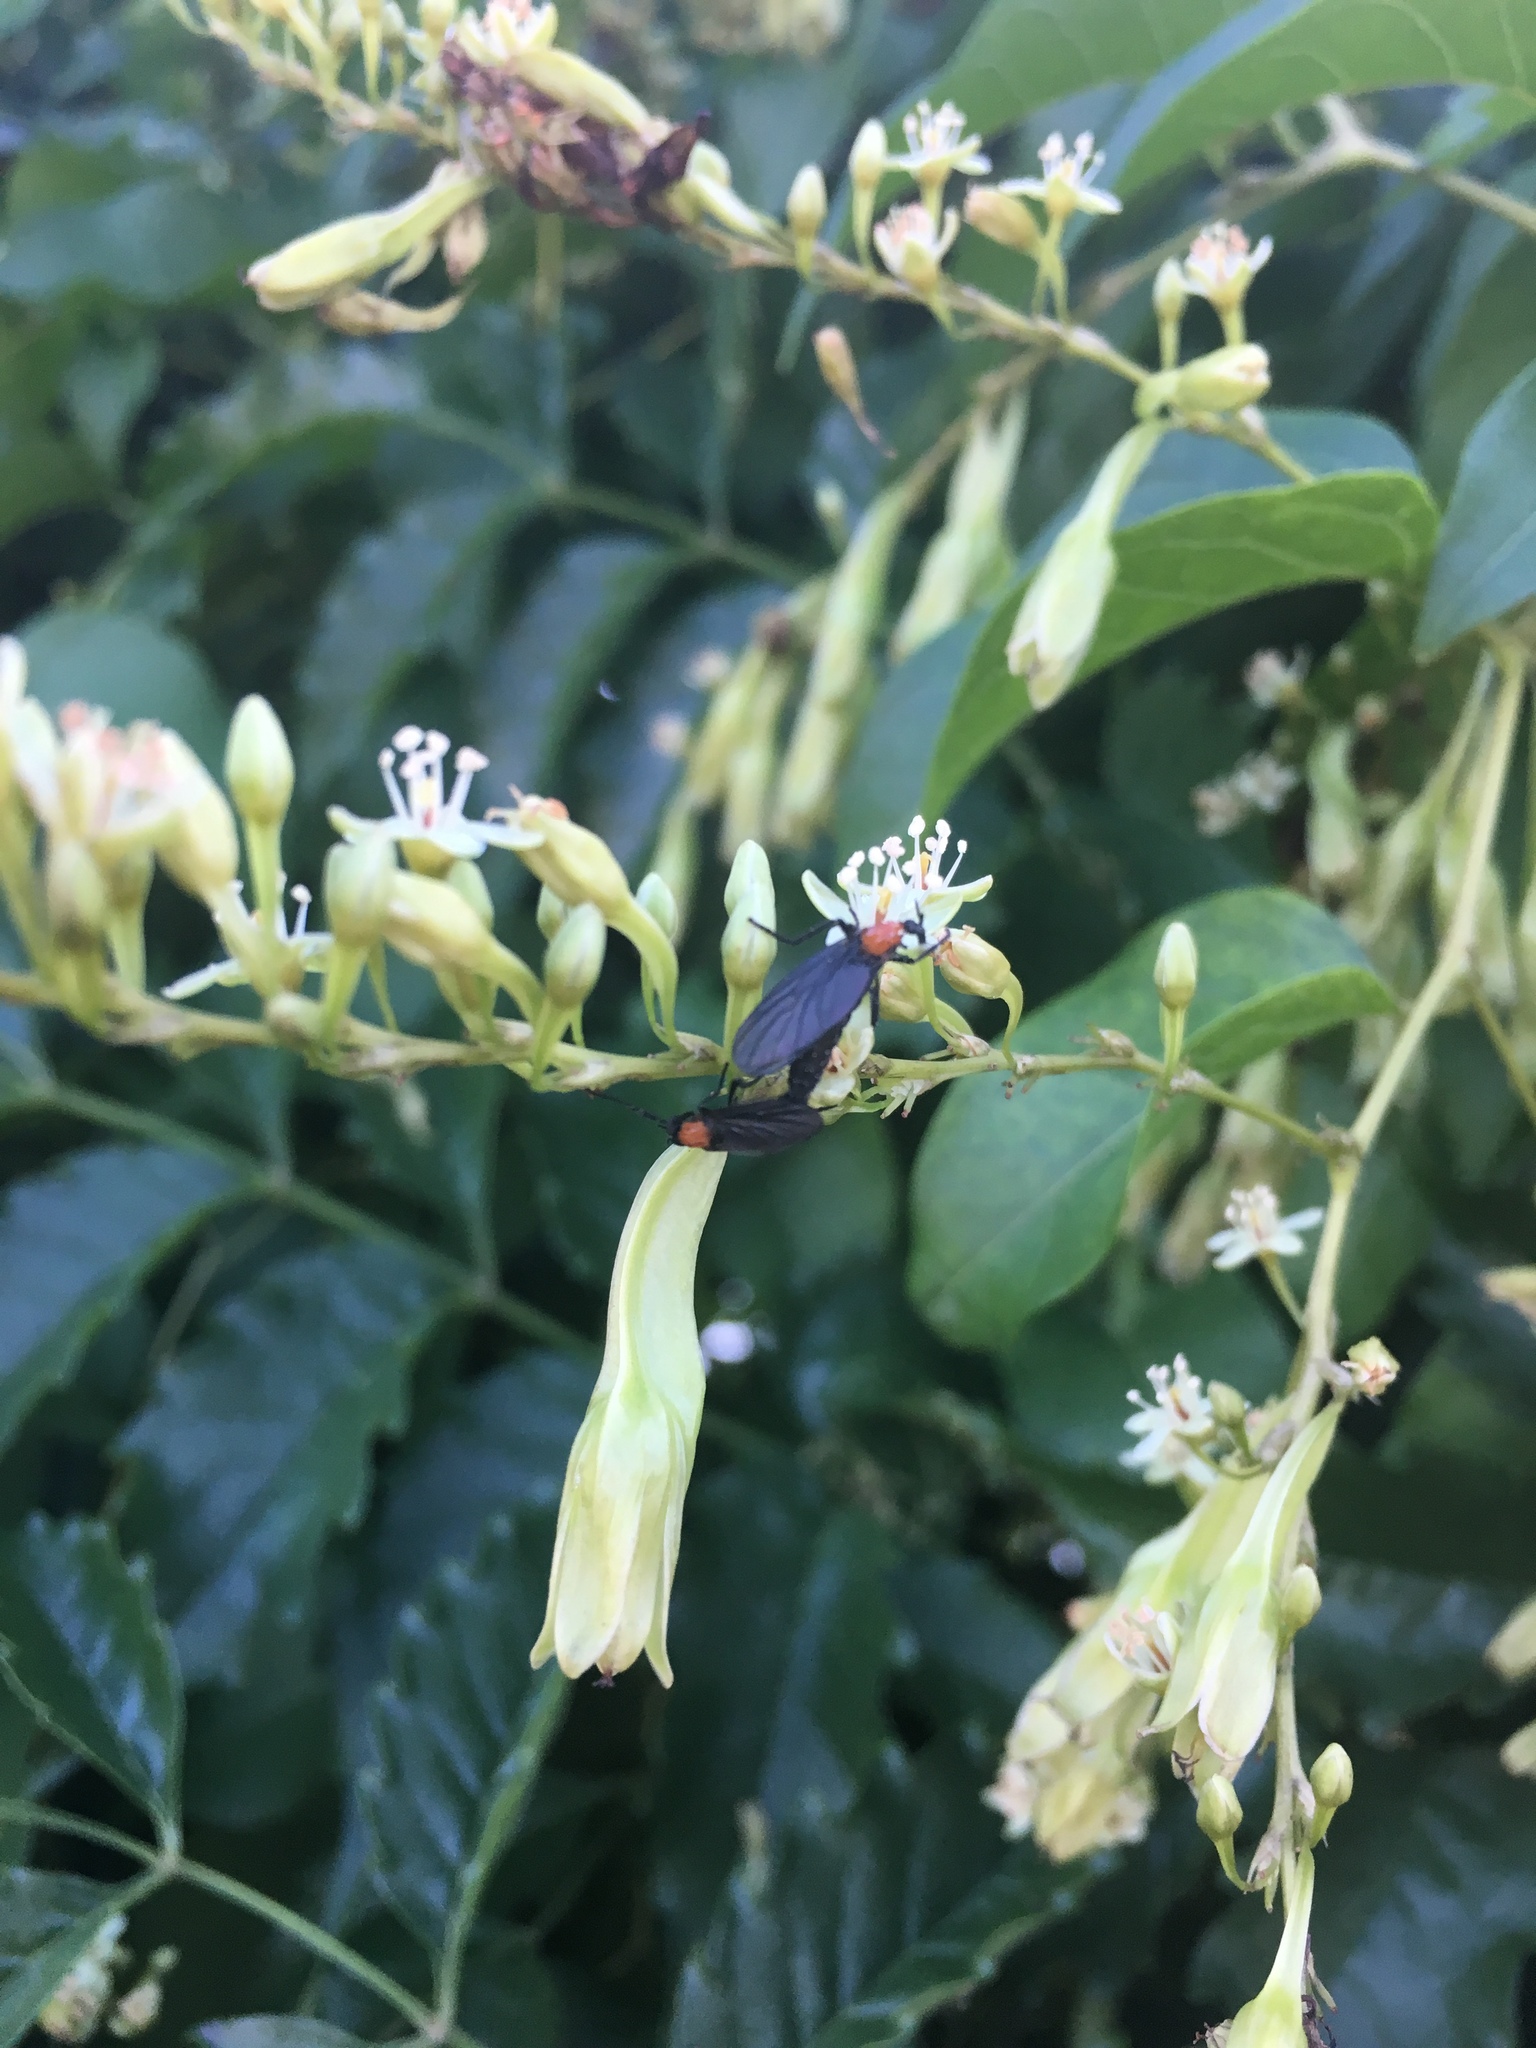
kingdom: Animalia
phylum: Arthropoda
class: Insecta
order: Diptera
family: Bibionidae
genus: Plecia
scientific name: Plecia nearctica
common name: March fly
